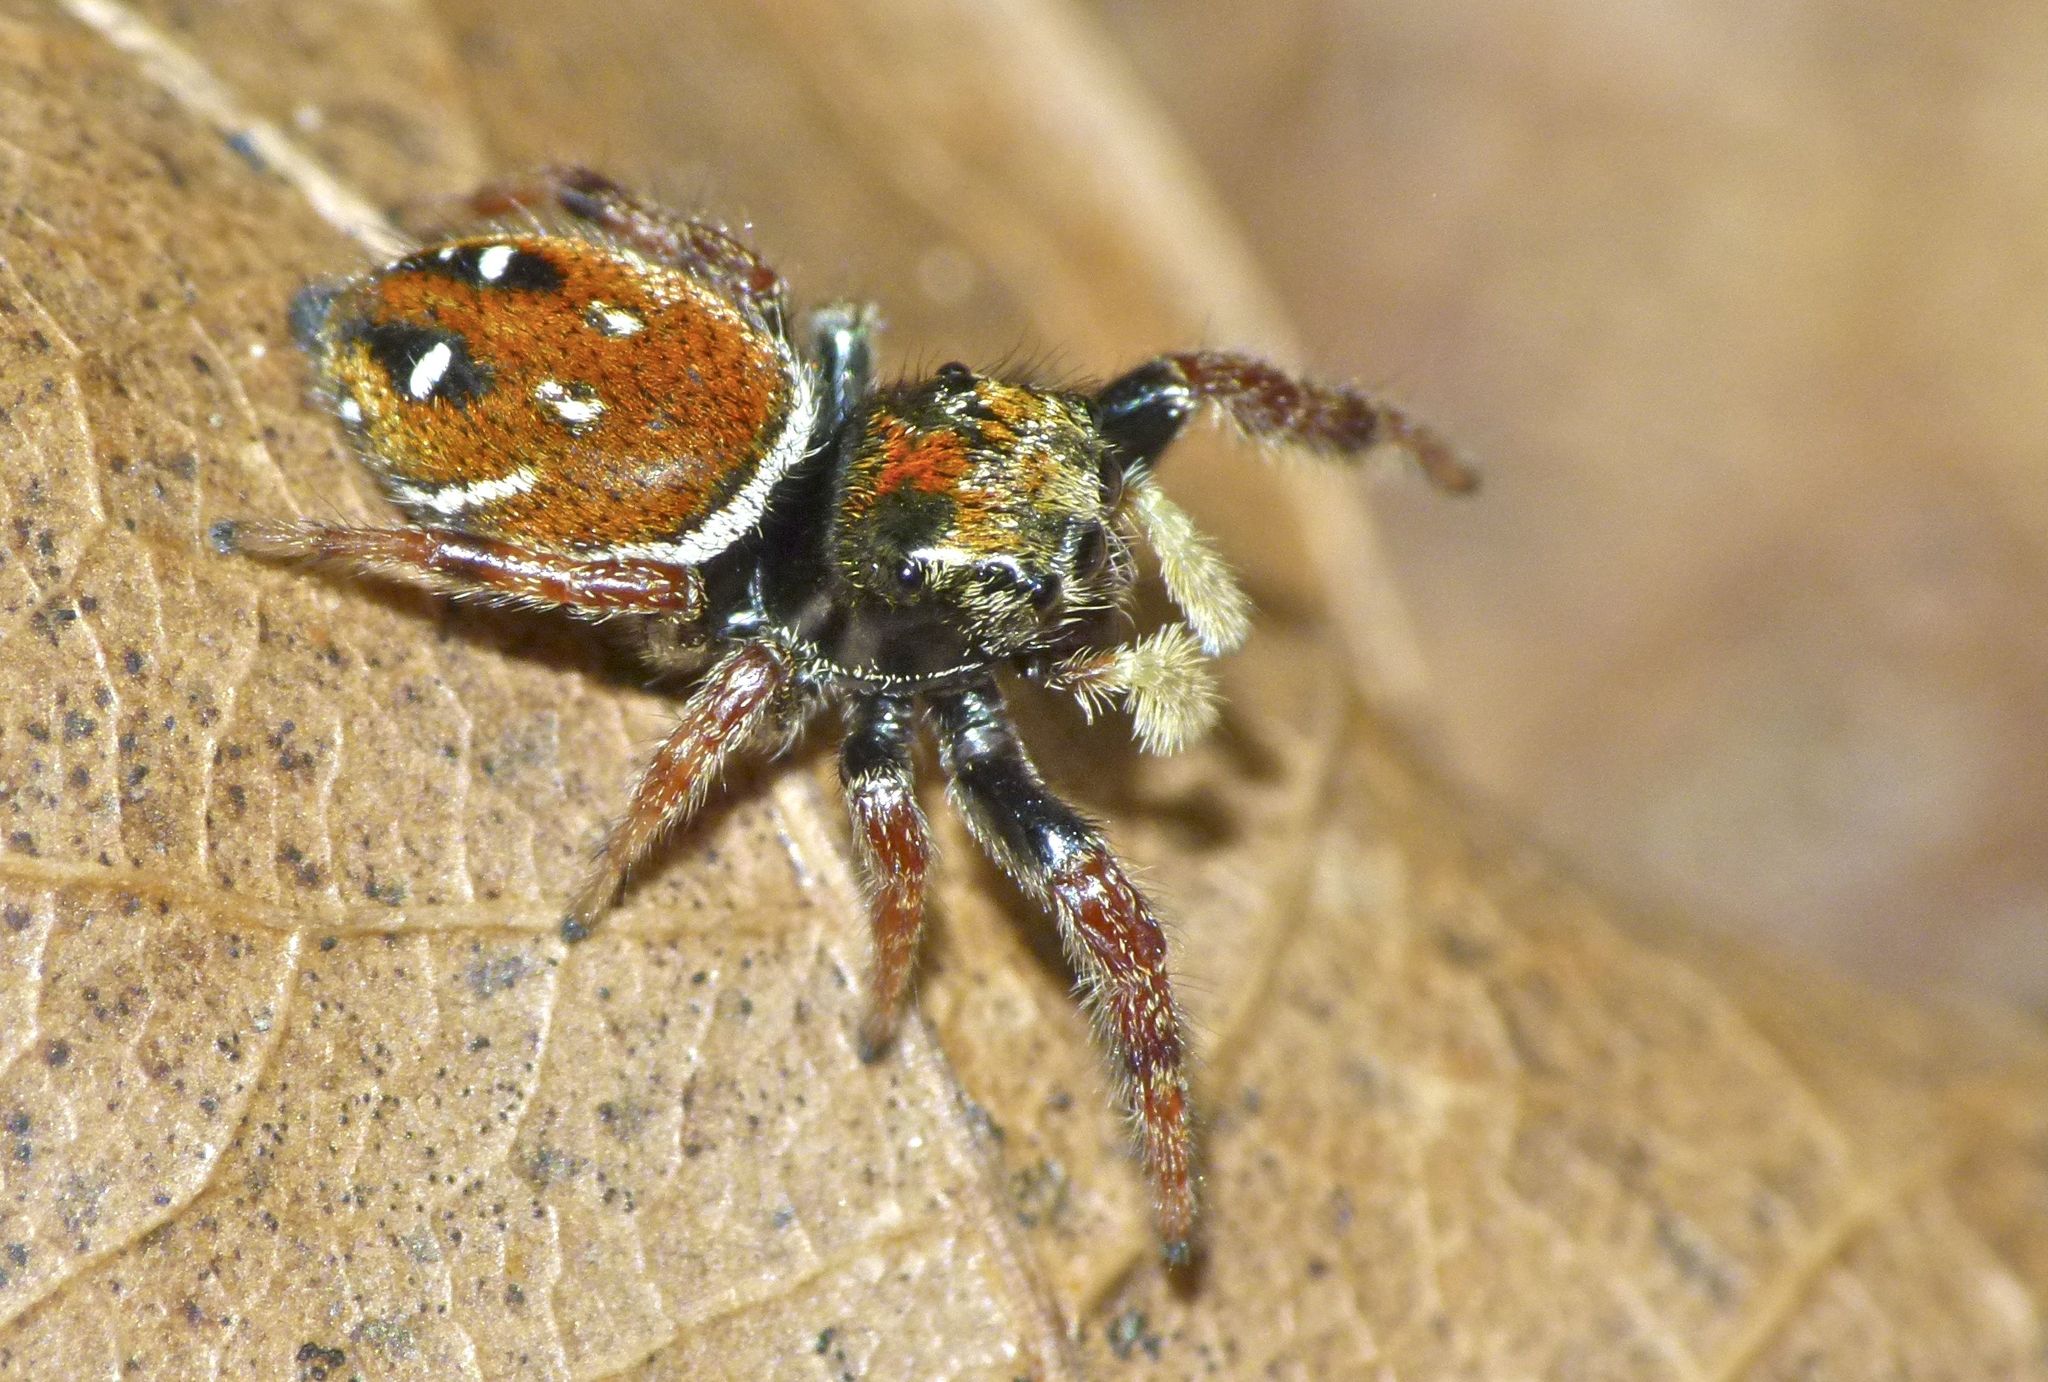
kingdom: Animalia
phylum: Arthropoda
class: Arachnida
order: Araneae
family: Salticidae
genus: Phidippus
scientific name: Phidippus whitmani
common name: Whitman's jumping spider
